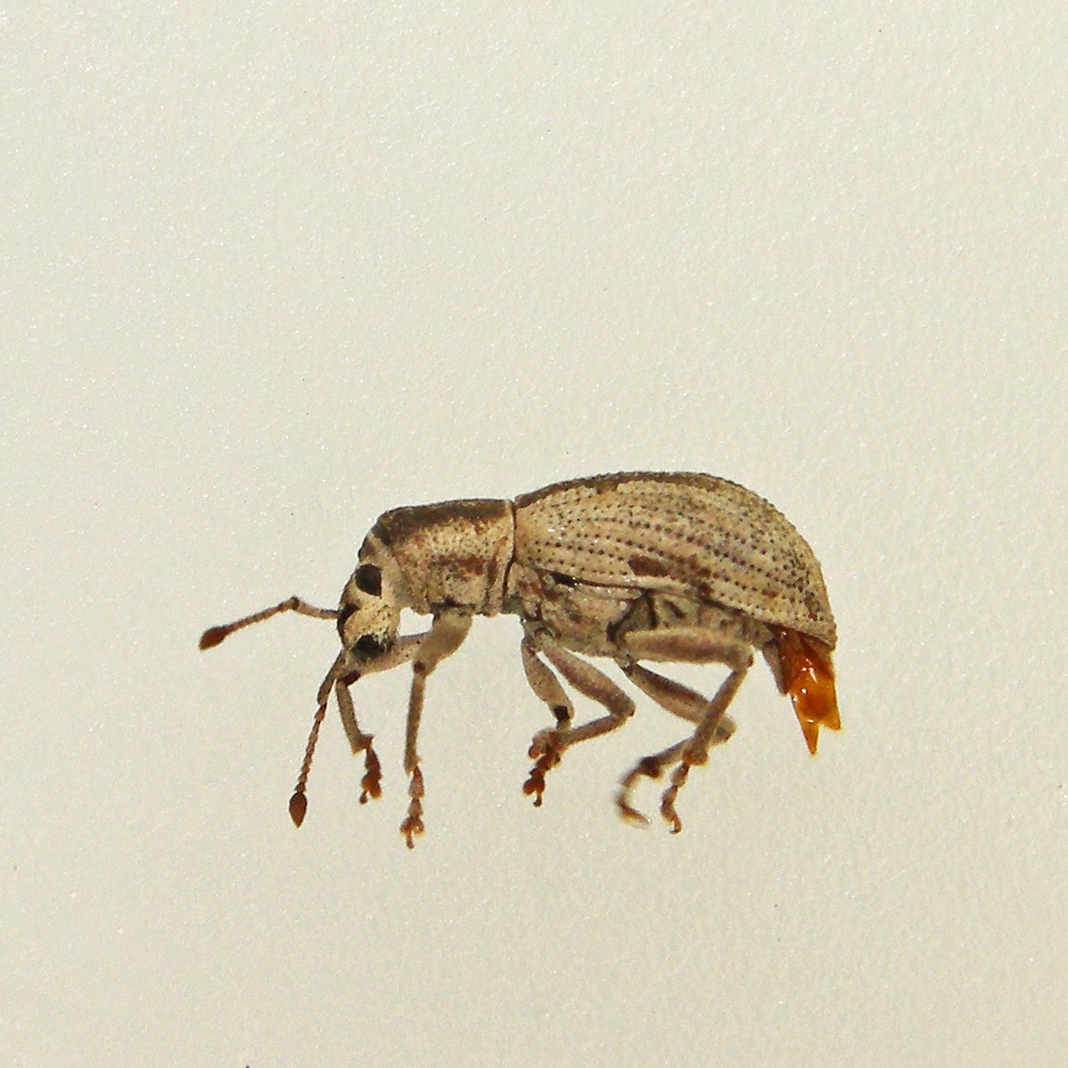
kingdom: Animalia
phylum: Arthropoda
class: Insecta
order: Coleoptera
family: Curculionidae
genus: Aphrastus
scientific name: Aphrastus taeniatus
